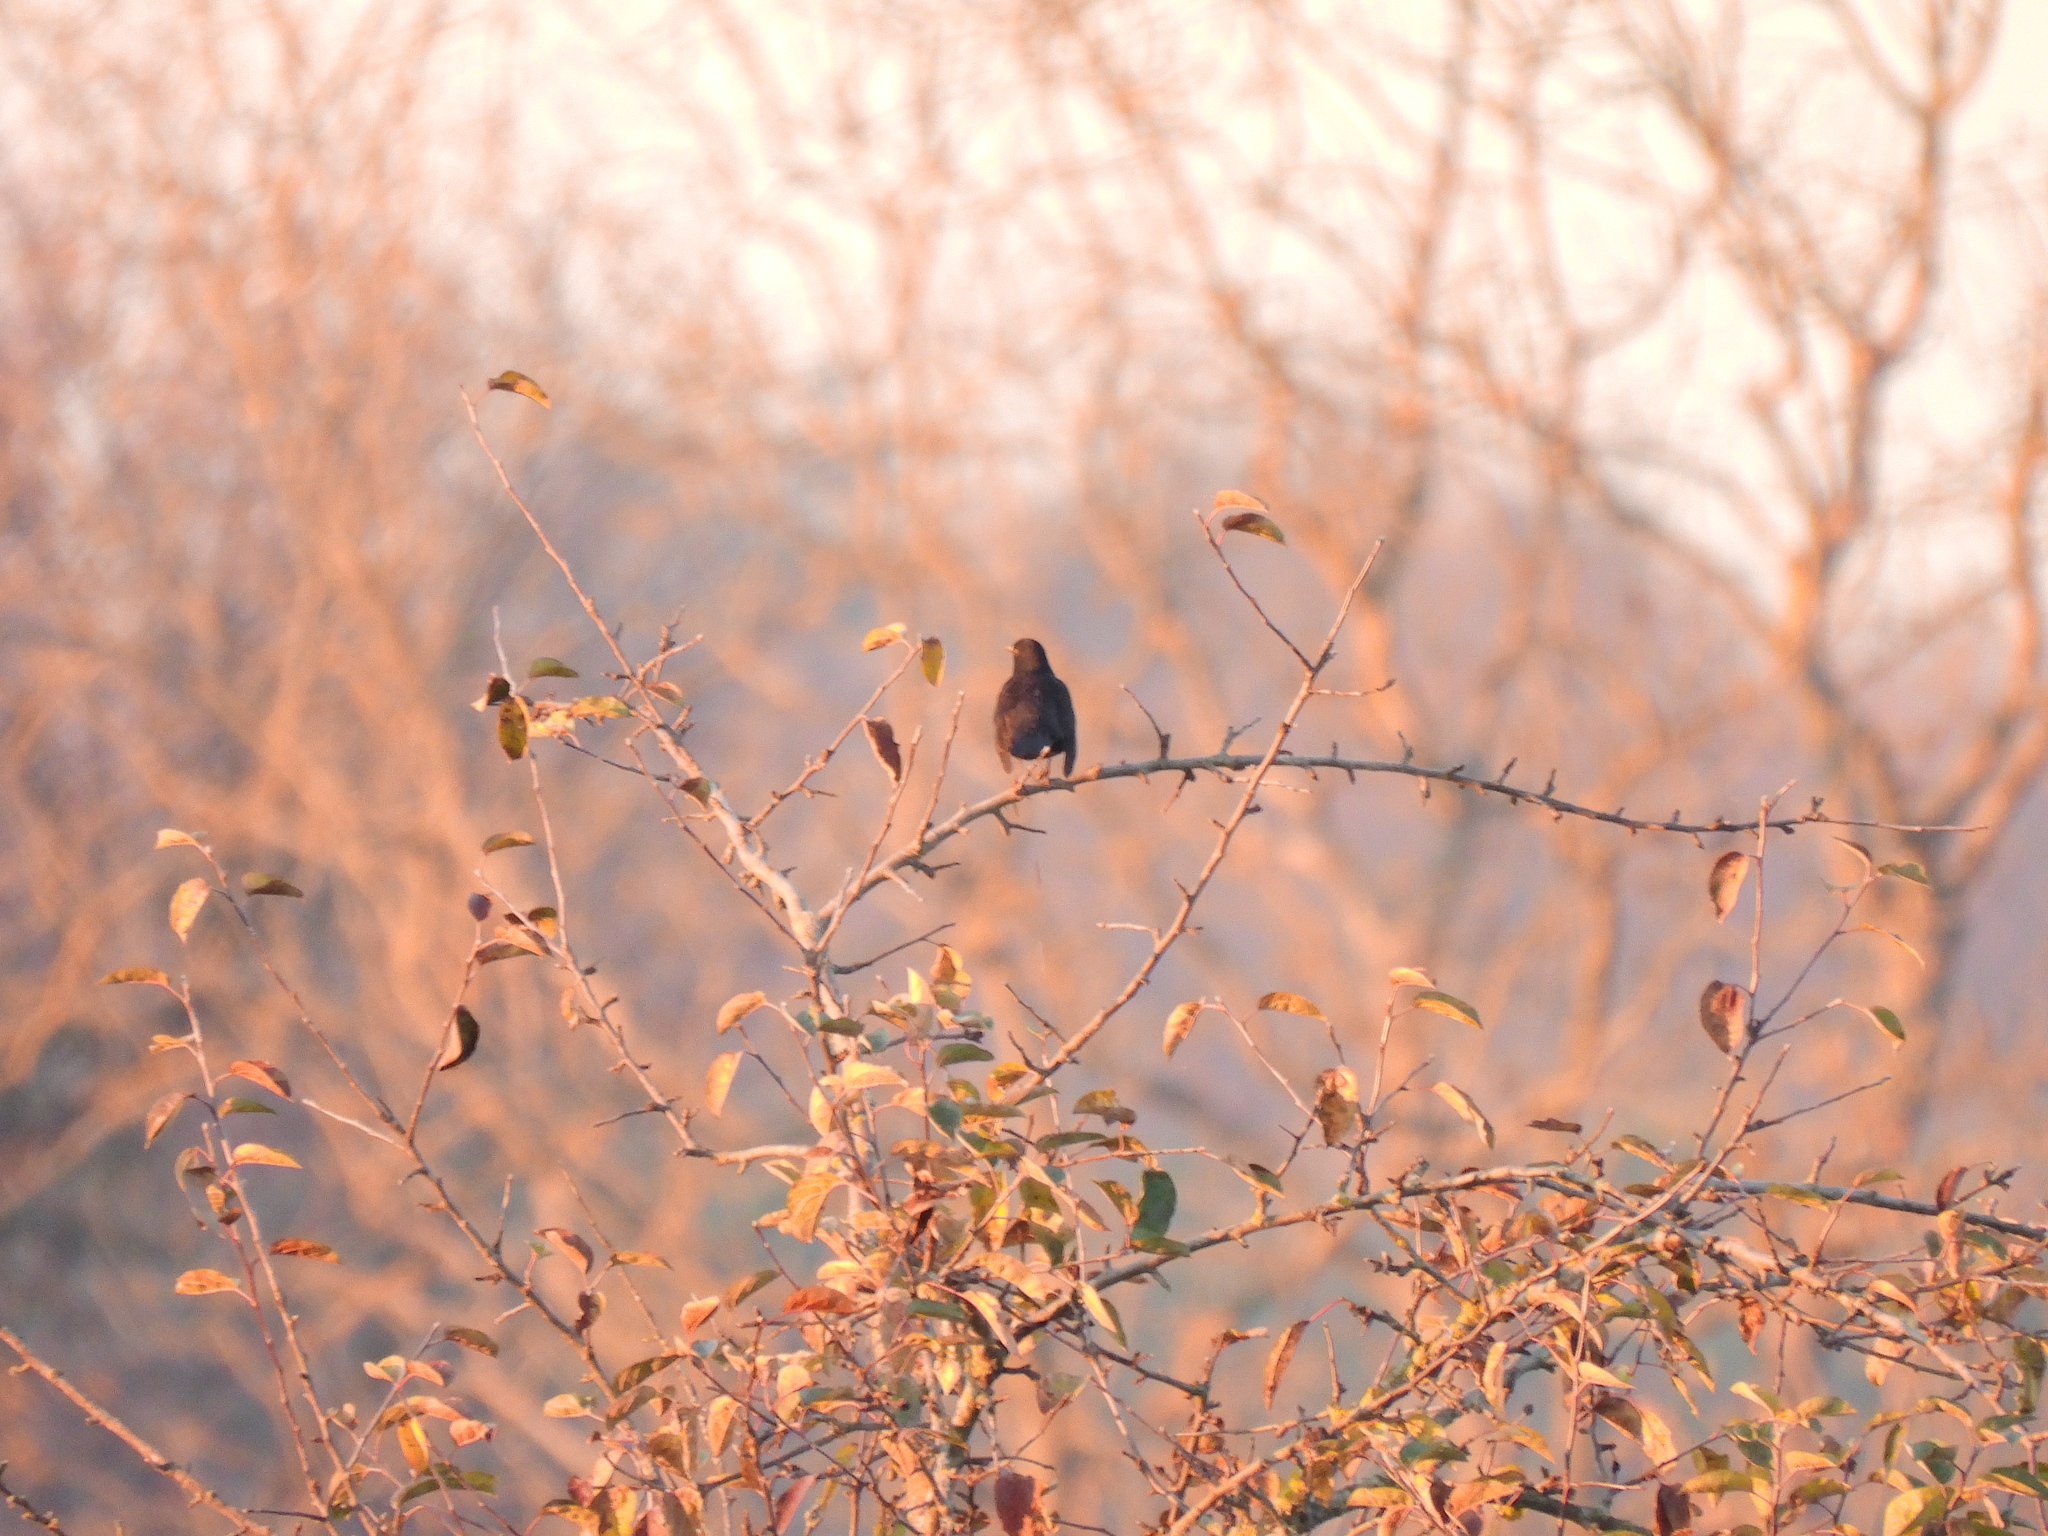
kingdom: Animalia
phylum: Chordata
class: Aves
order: Passeriformes
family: Turdidae
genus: Turdus
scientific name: Turdus merula
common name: Common blackbird
